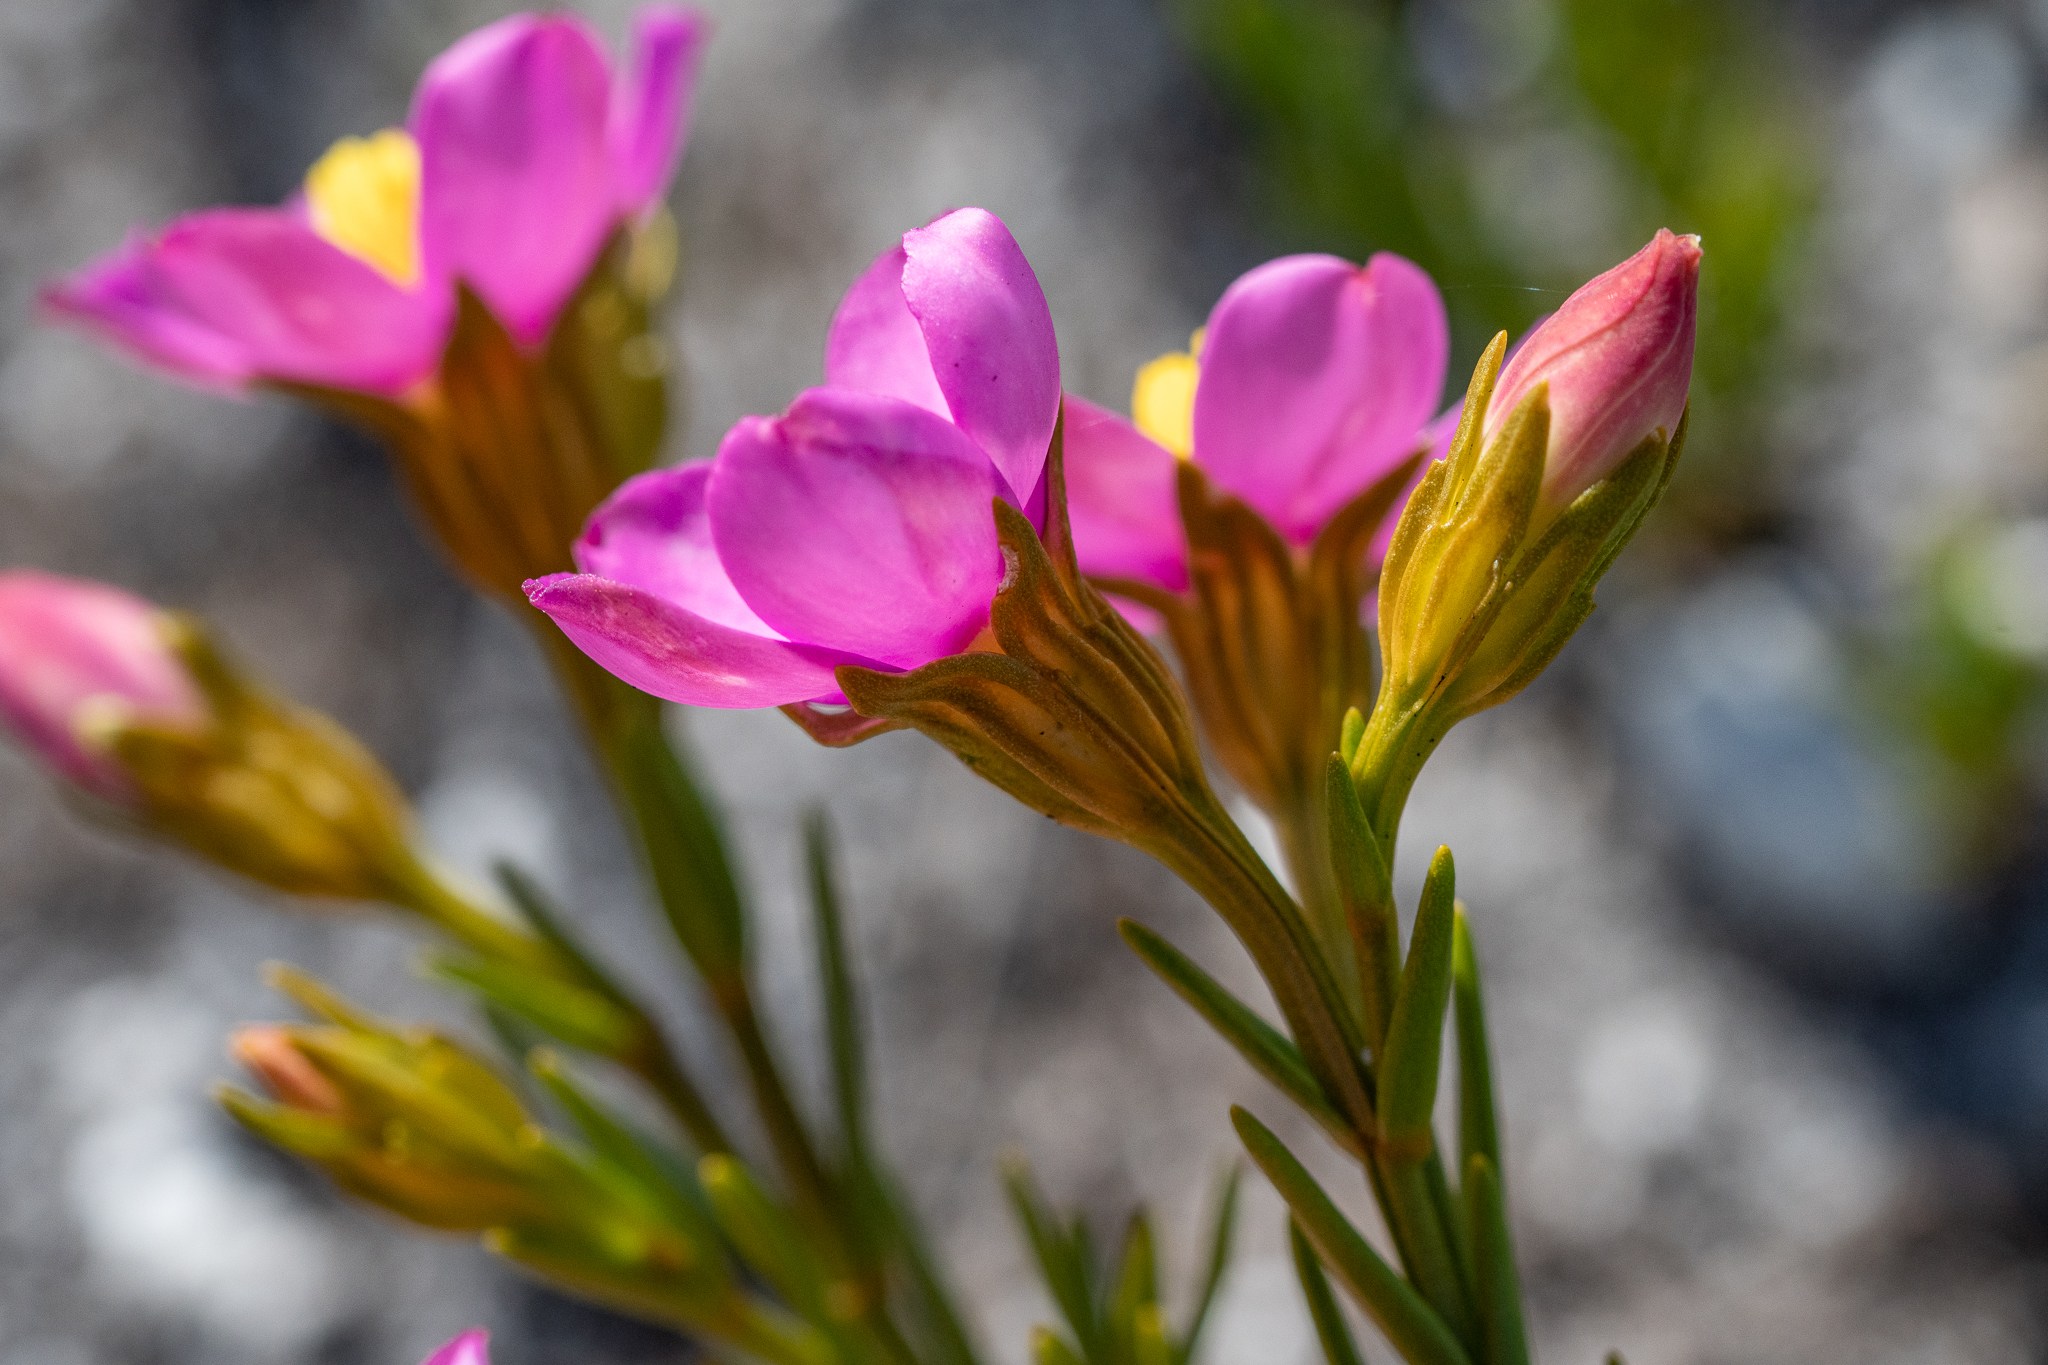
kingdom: Plantae
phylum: Tracheophyta
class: Magnoliopsida
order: Gentianales
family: Gentianaceae
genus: Chironia
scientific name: Chironia tetragona
